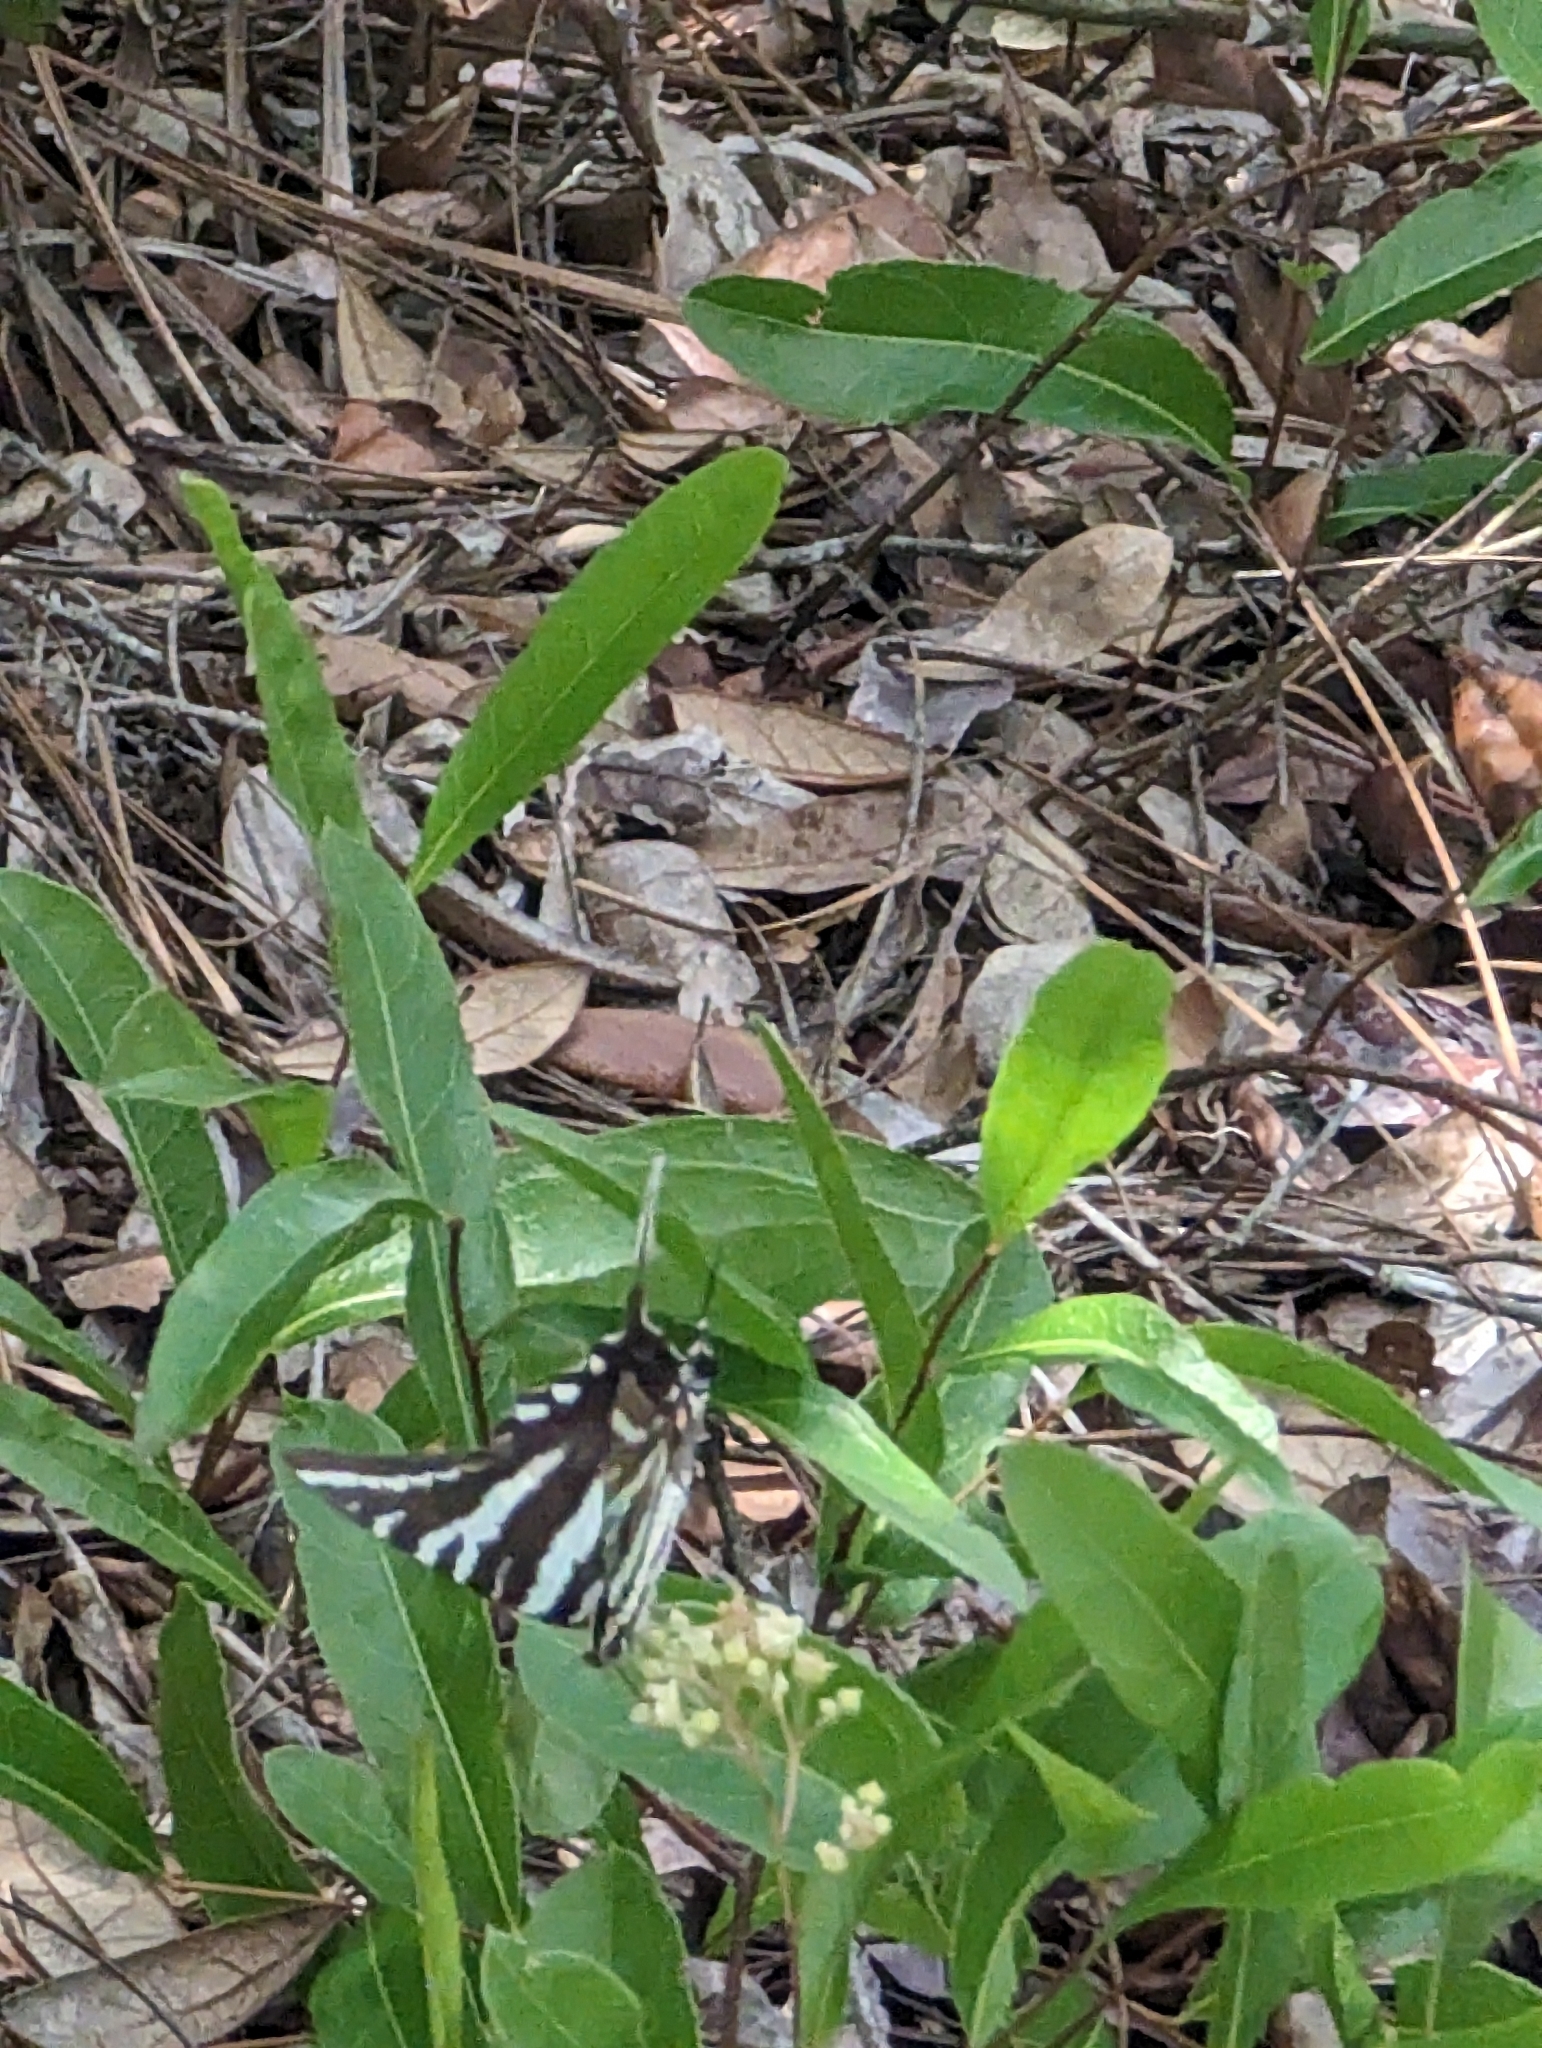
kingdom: Animalia
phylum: Arthropoda
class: Insecta
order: Lepidoptera
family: Papilionidae
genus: Protographium
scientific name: Protographium marcellus
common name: Zebra swallowtail
